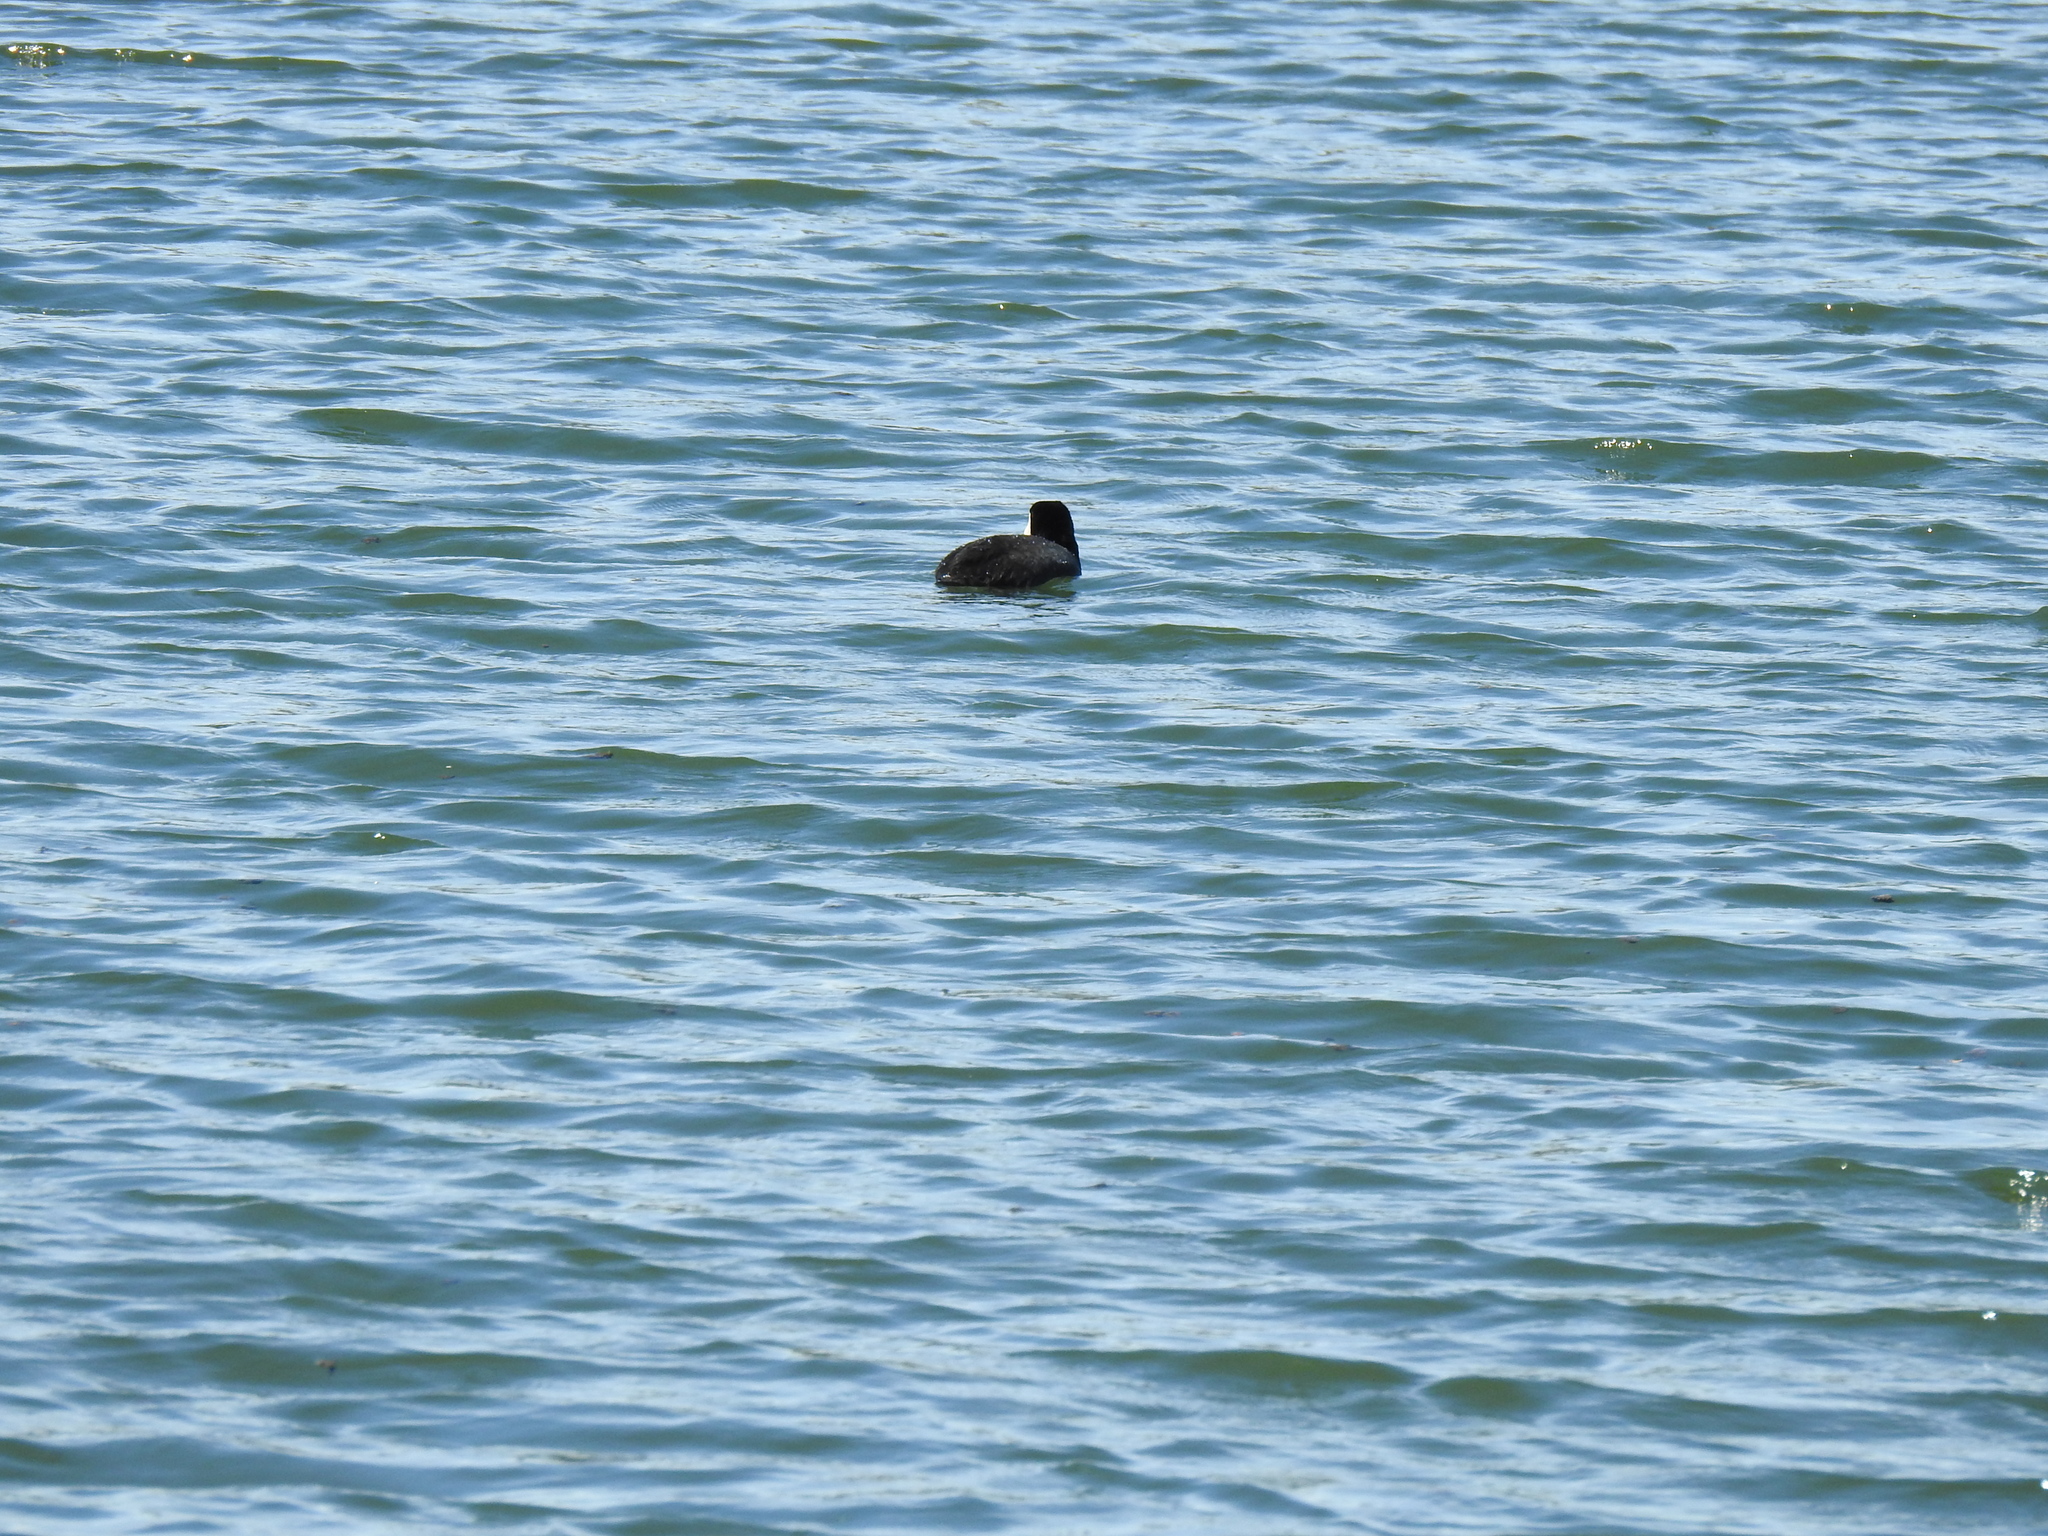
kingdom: Animalia
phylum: Chordata
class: Aves
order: Gruiformes
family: Rallidae
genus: Fulica
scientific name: Fulica americana
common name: American coot
